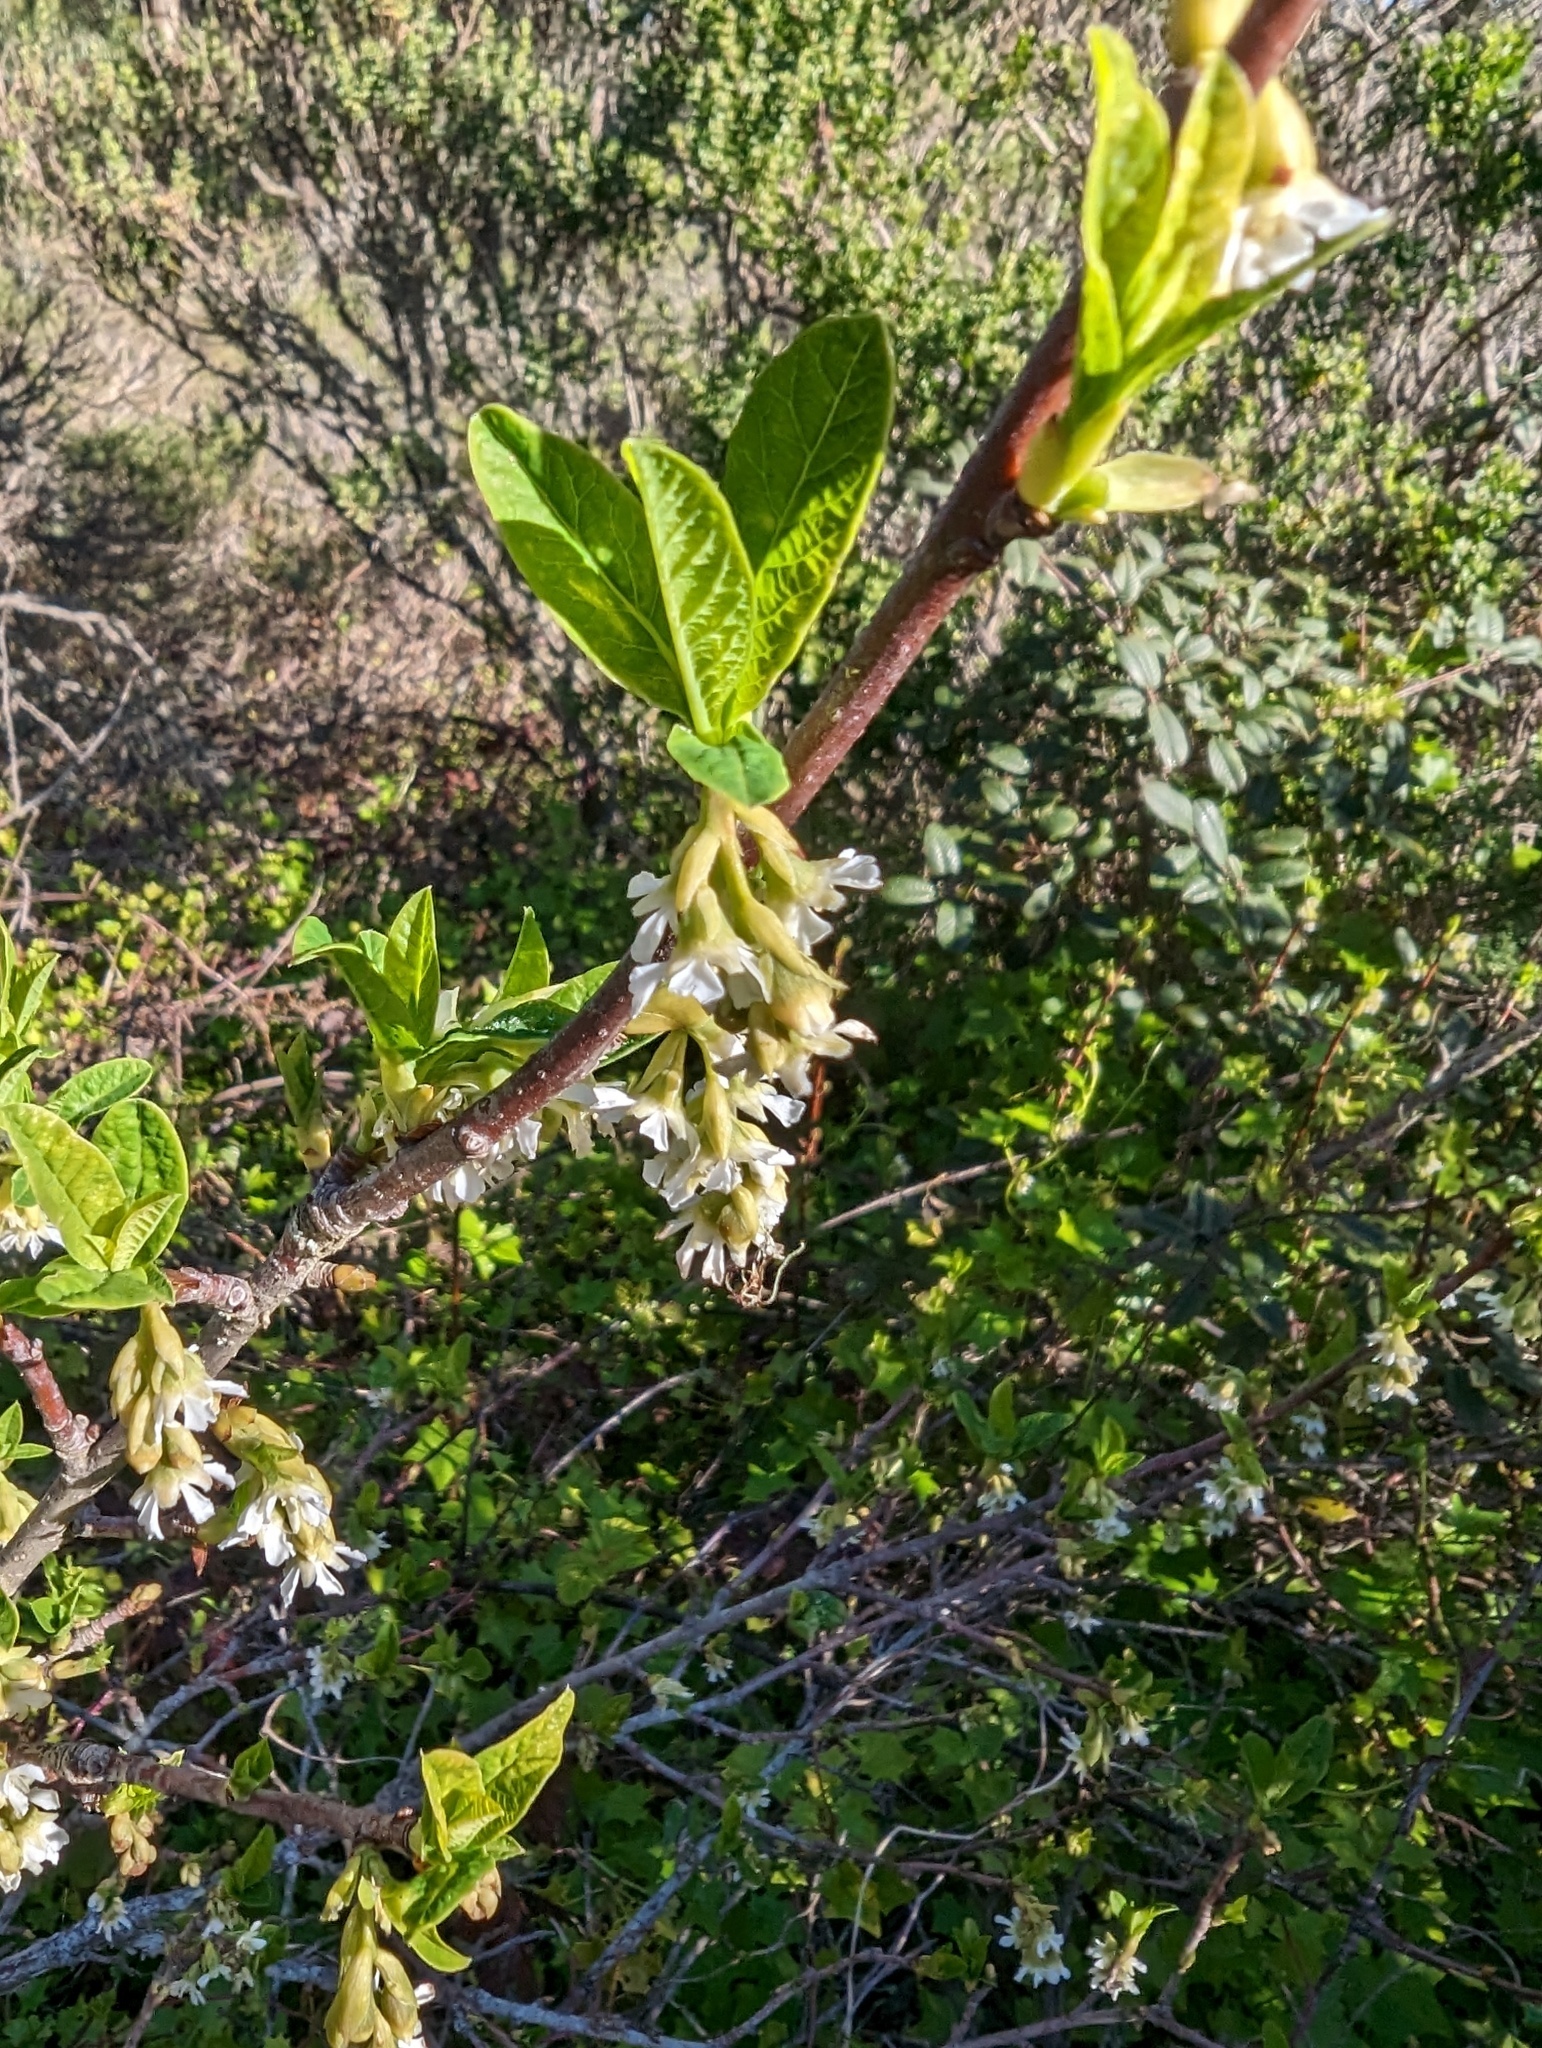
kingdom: Plantae
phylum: Tracheophyta
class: Magnoliopsida
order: Rosales
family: Rosaceae
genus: Oemleria
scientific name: Oemleria cerasiformis
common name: Osoberry
